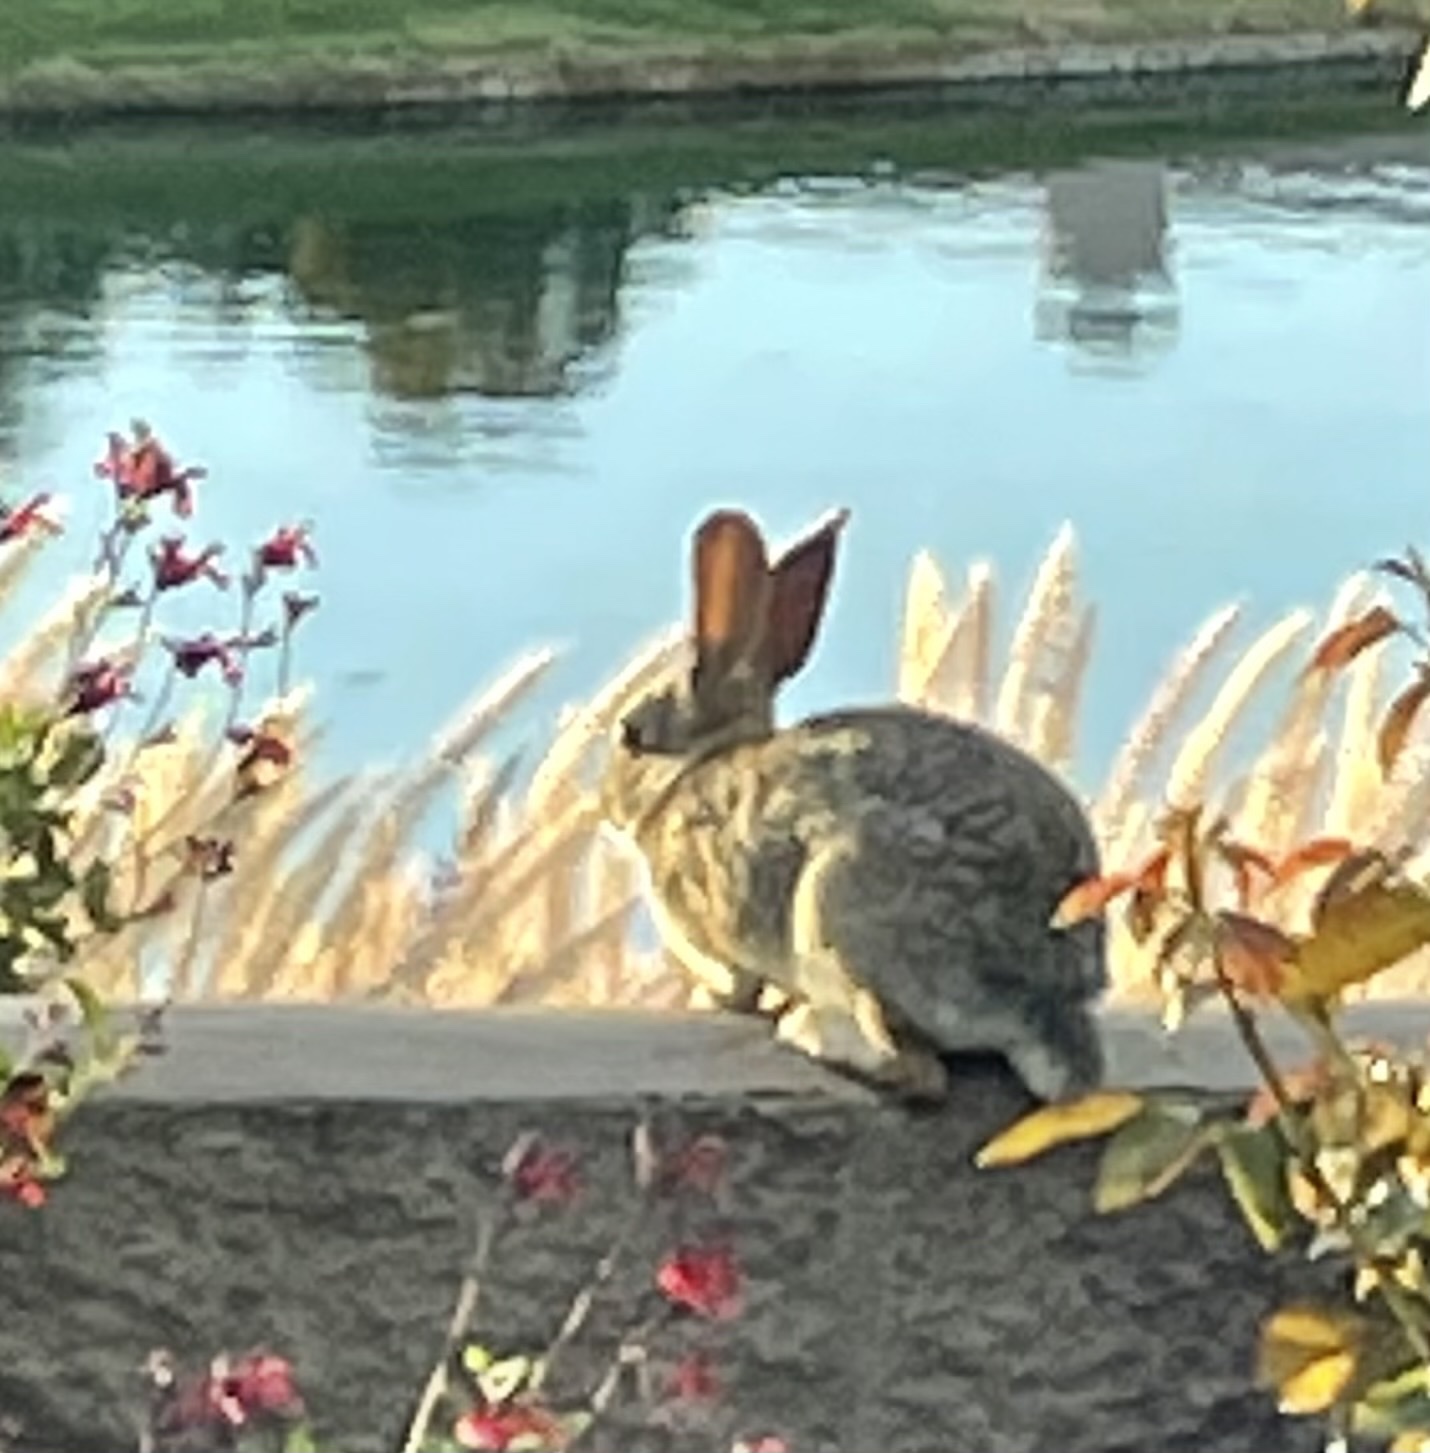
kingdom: Animalia
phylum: Chordata
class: Mammalia
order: Lagomorpha
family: Leporidae
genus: Sylvilagus
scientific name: Sylvilagus audubonii
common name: Desert cottontail
